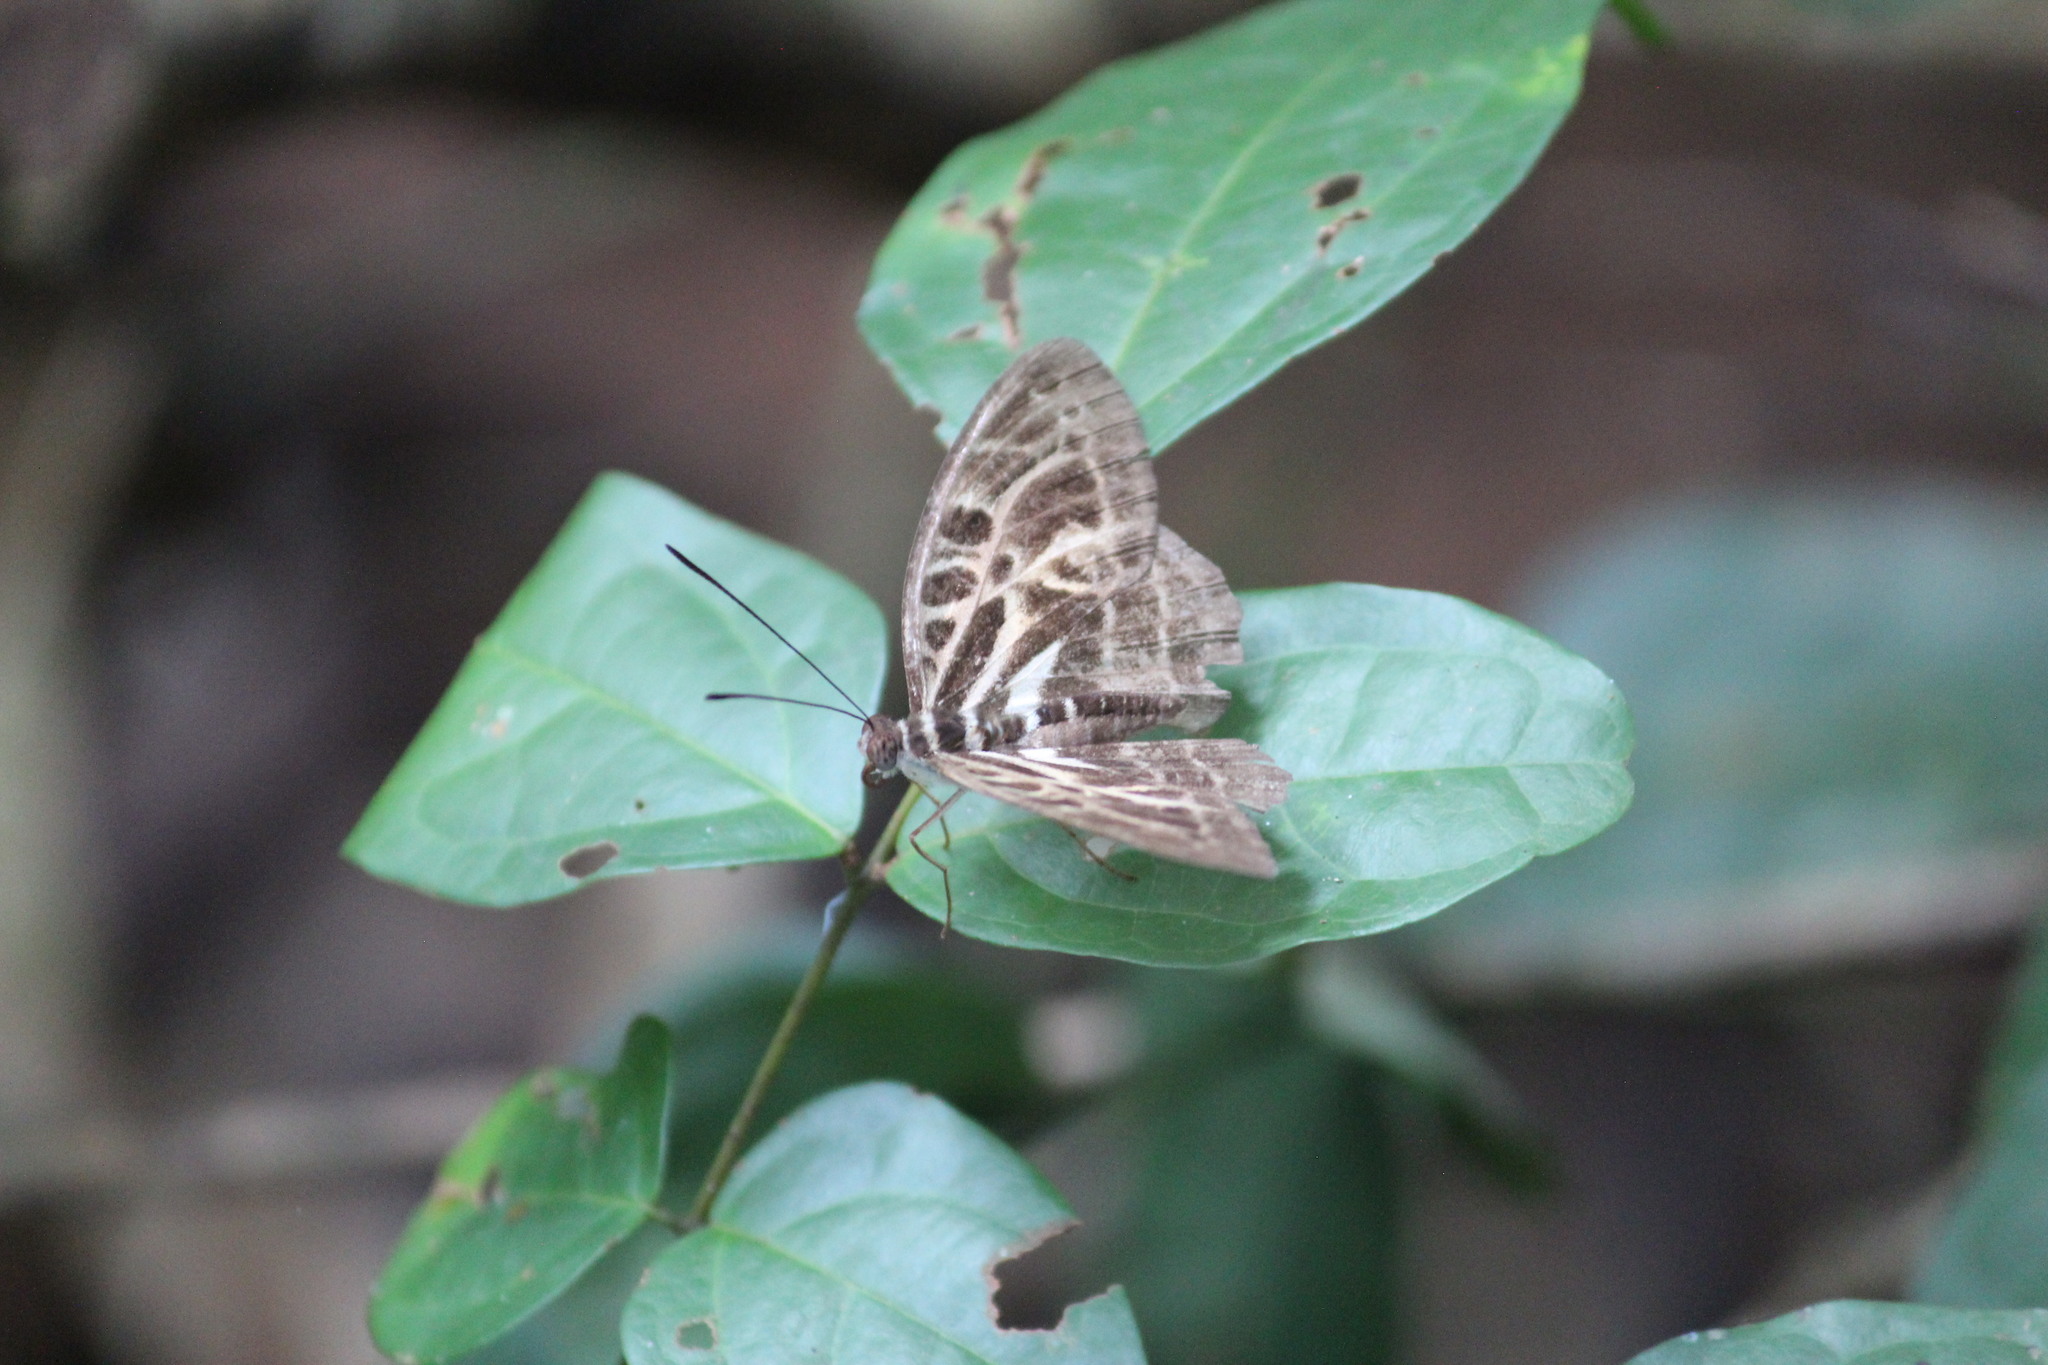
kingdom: Animalia
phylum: Arthropoda
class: Insecta
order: Lepidoptera
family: Nymphalidae
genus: Catuna
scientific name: Catuna
